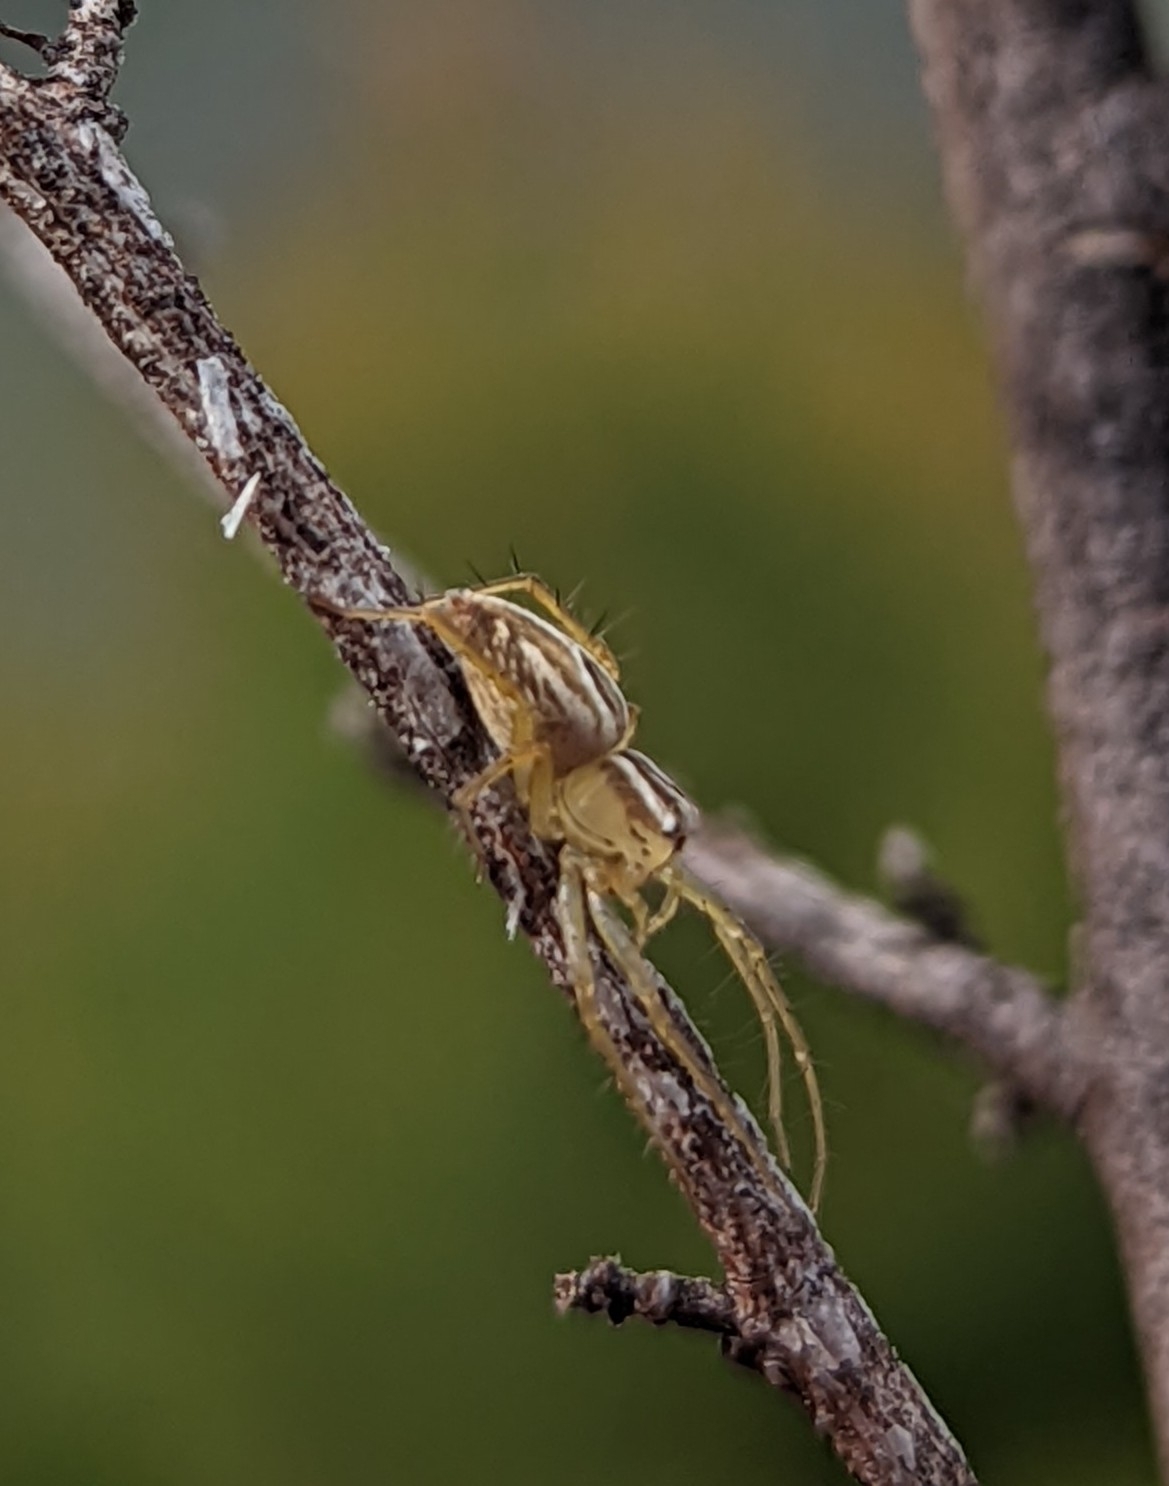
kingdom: Animalia
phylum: Arthropoda
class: Arachnida
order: Araneae
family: Oxyopidae
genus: Oxyopes
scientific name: Oxyopes salticus
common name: Lynx spiders
